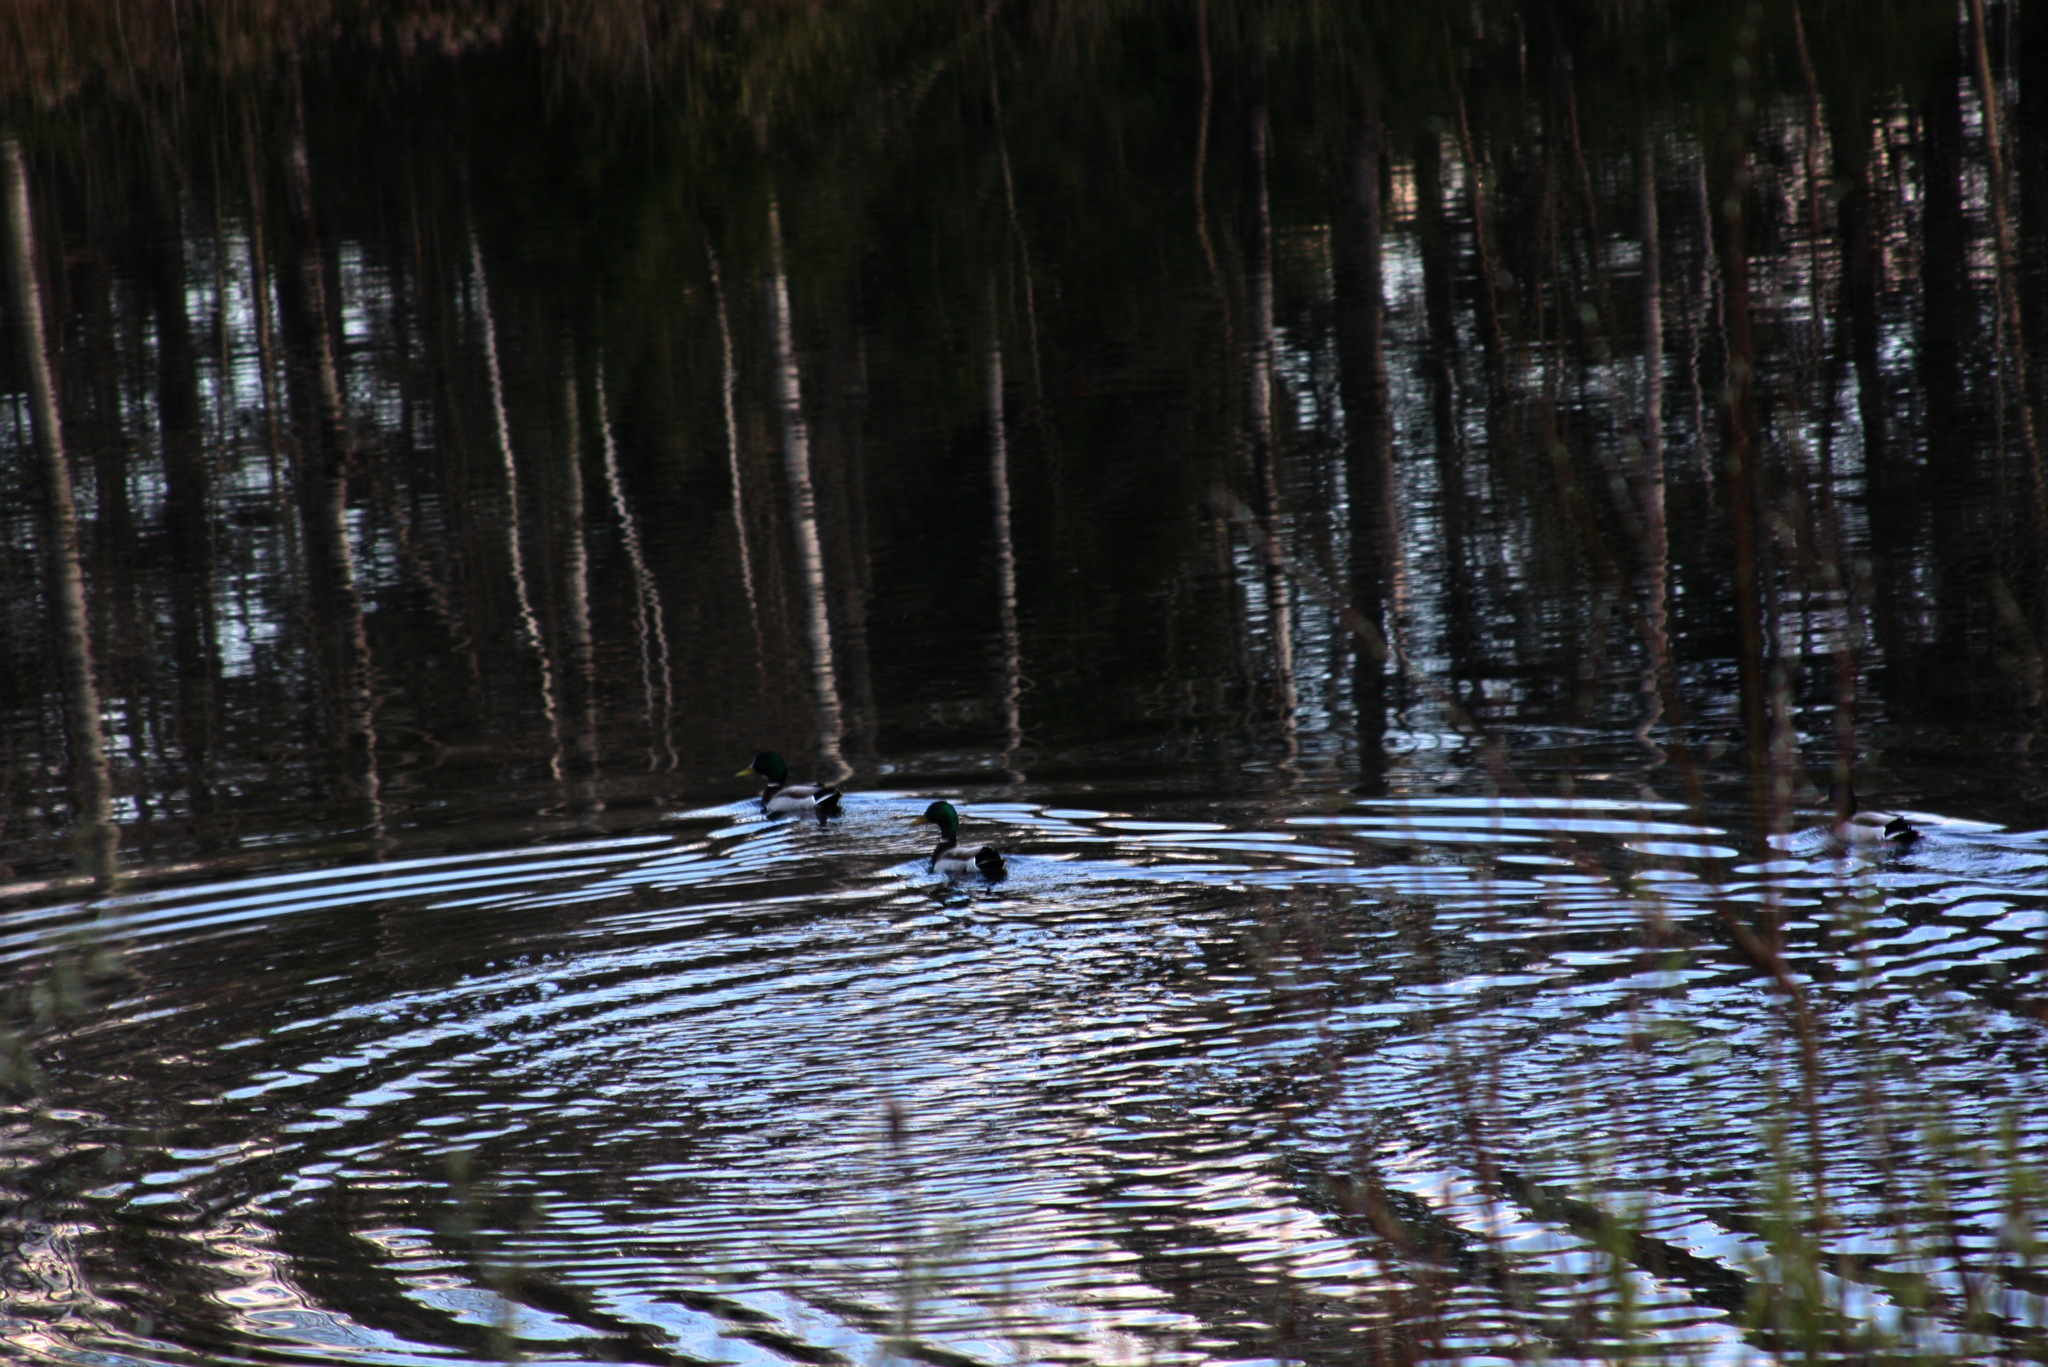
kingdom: Animalia
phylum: Chordata
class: Aves
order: Anseriformes
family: Anatidae
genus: Anas
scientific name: Anas platyrhynchos
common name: Mallard
